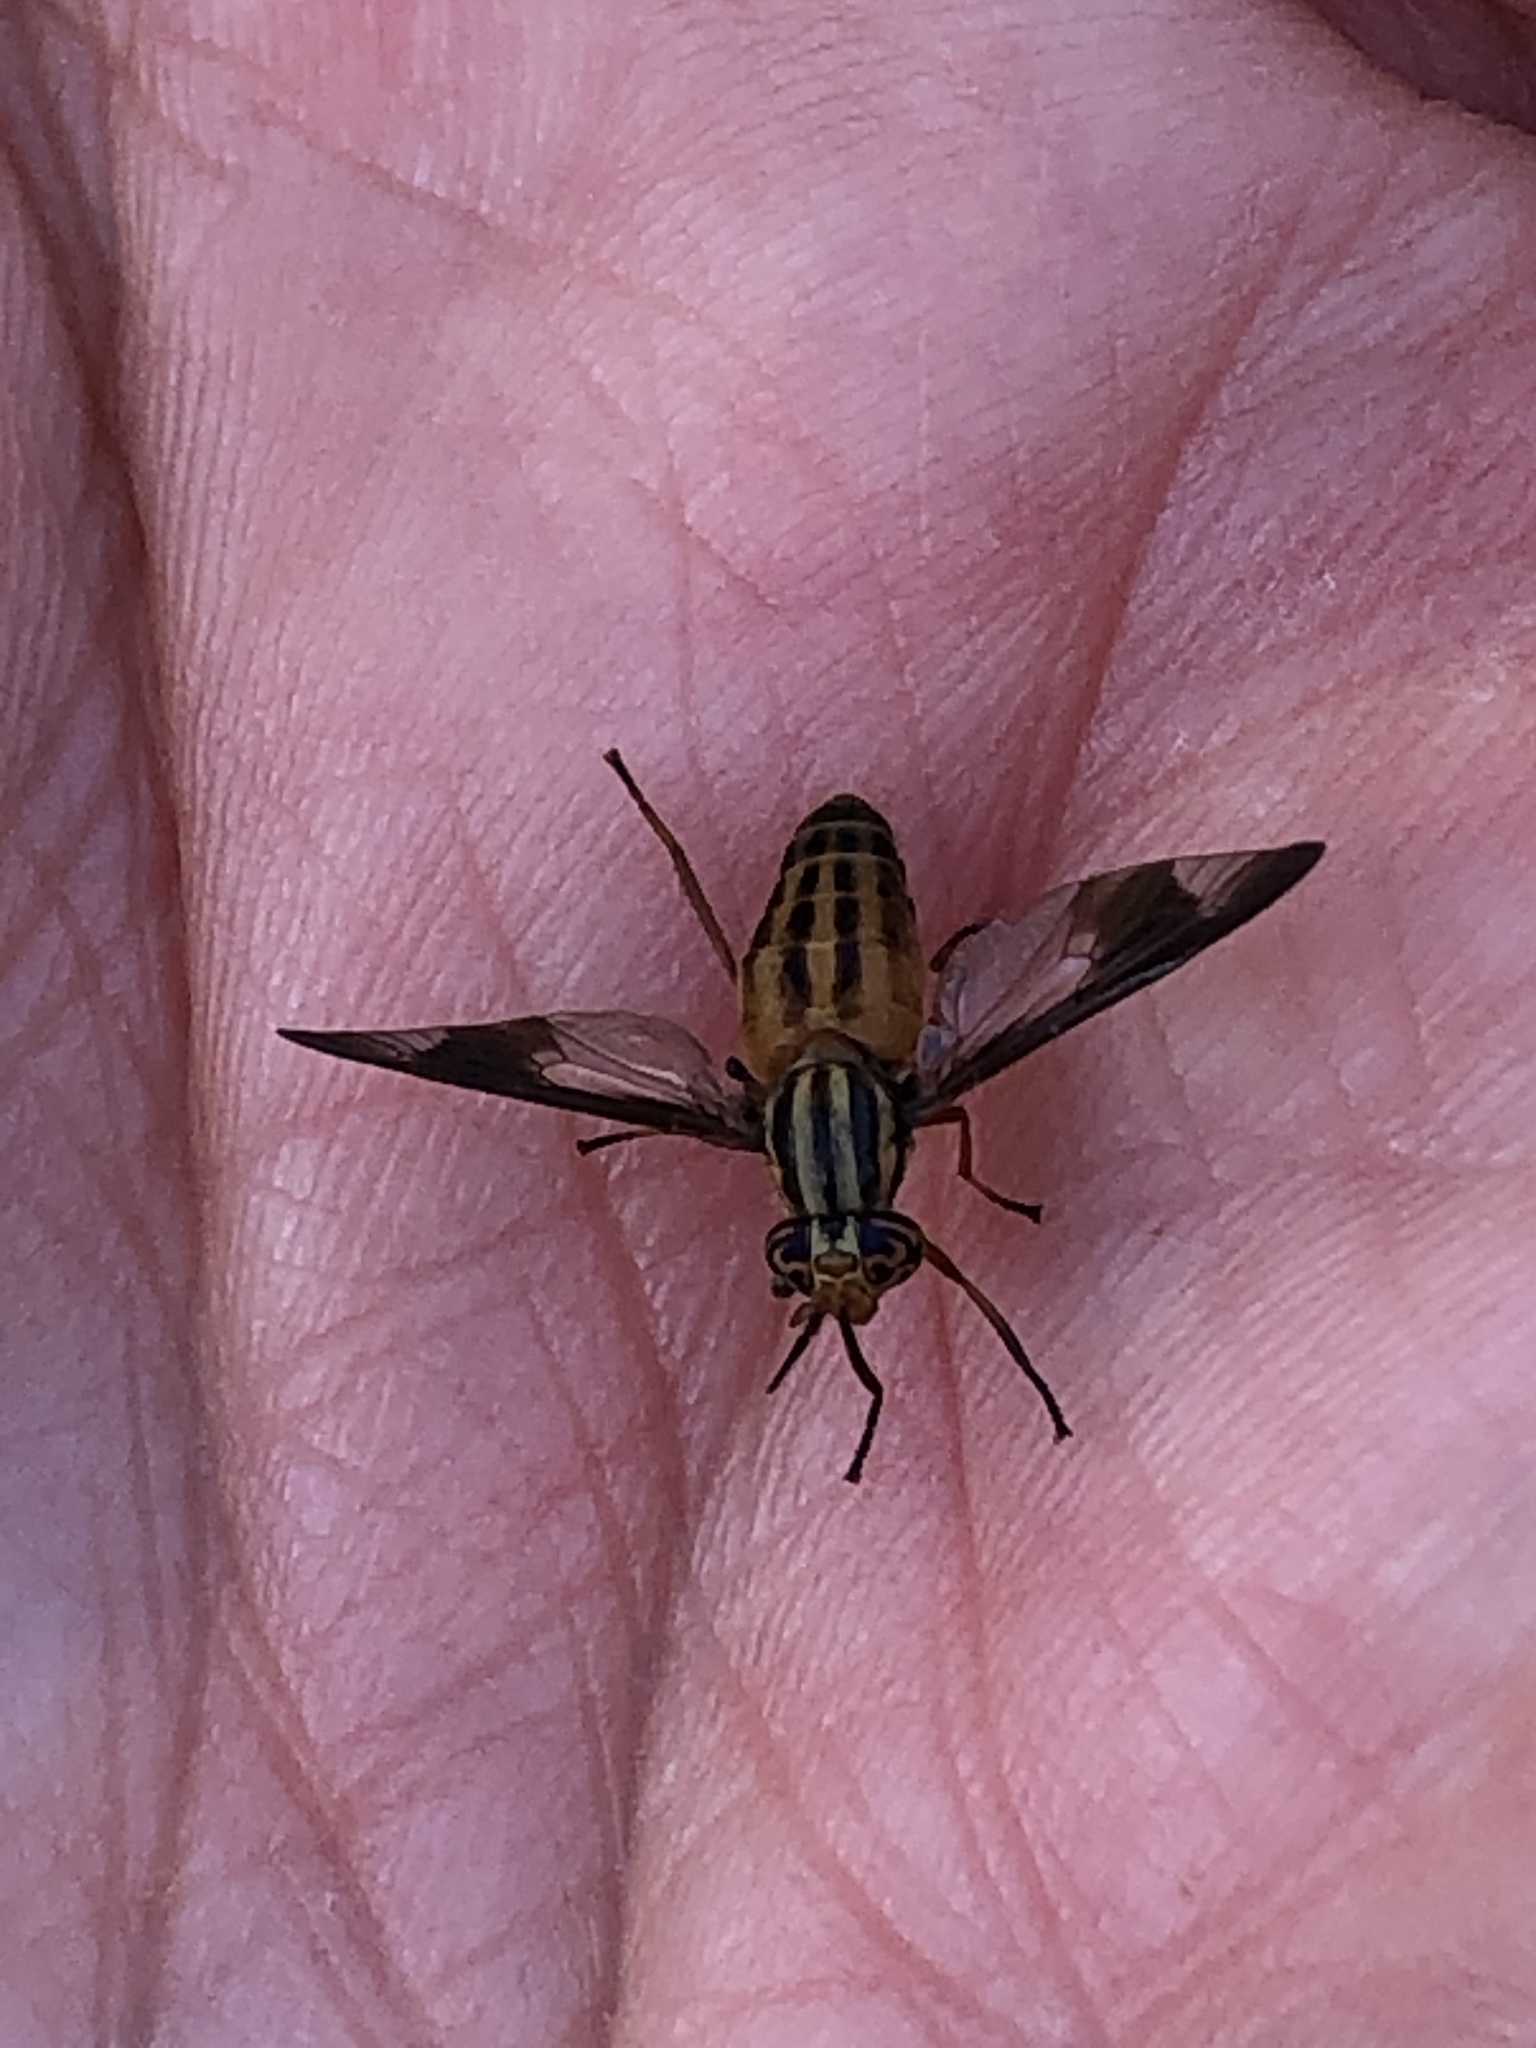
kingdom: Animalia
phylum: Arthropoda
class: Insecta
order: Diptera
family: Tabanidae
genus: Chrysops
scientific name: Chrysops vittatus
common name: Striped deer fly
